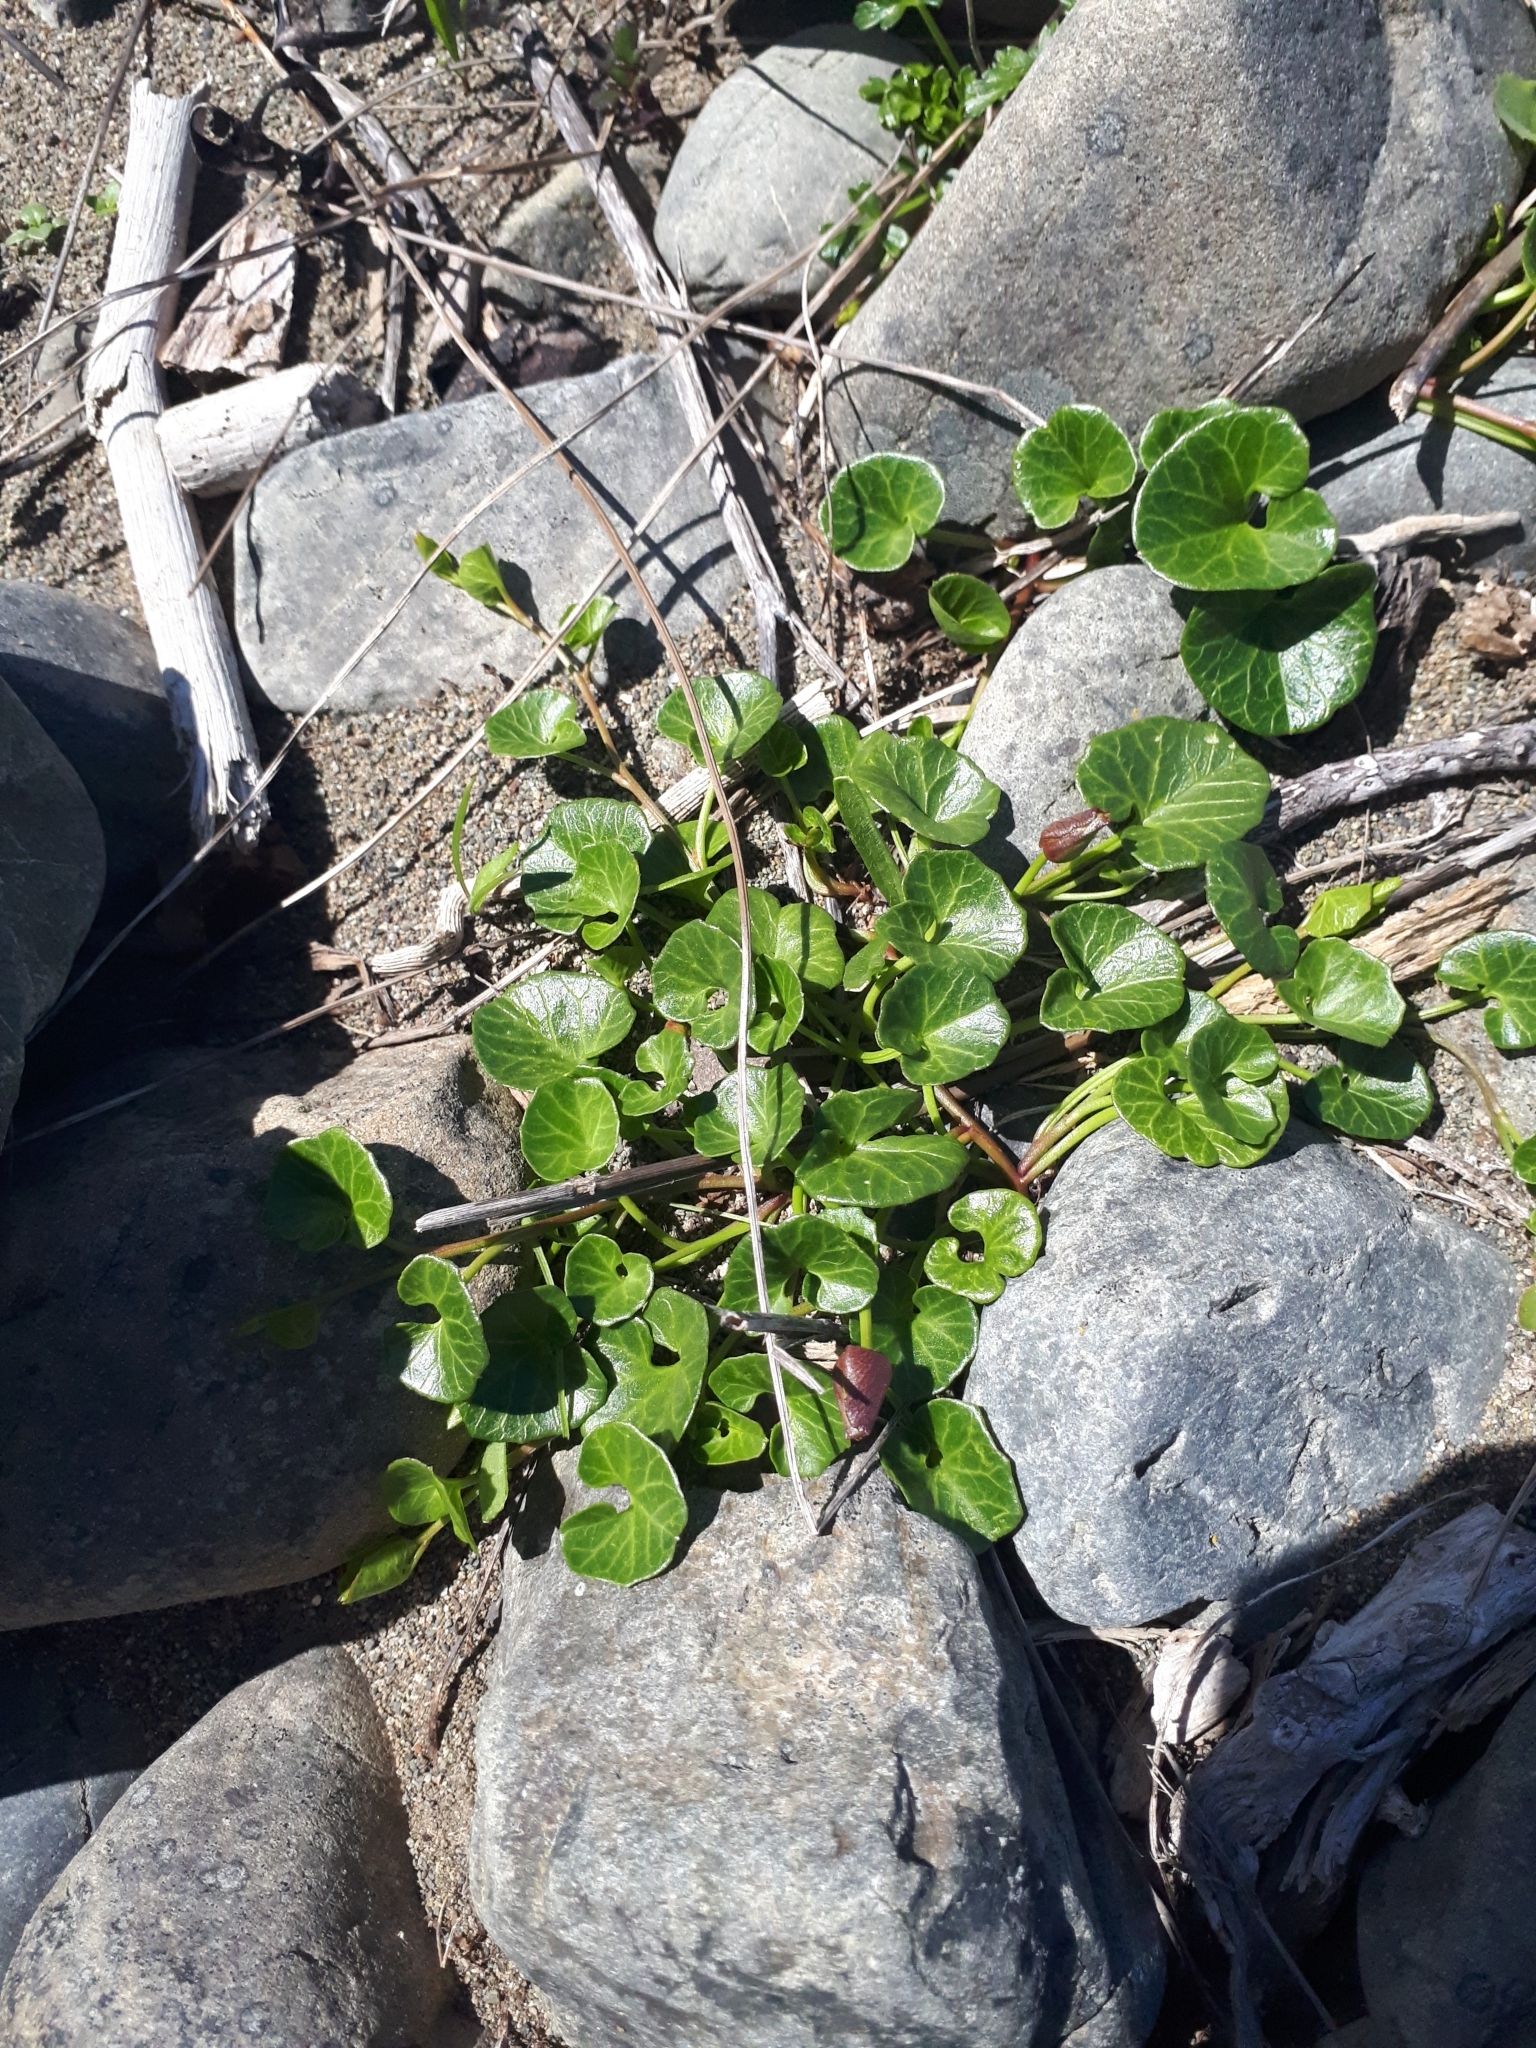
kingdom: Plantae
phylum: Tracheophyta
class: Magnoliopsida
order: Solanales
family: Convolvulaceae
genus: Calystegia
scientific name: Calystegia soldanella
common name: Sea bindweed
